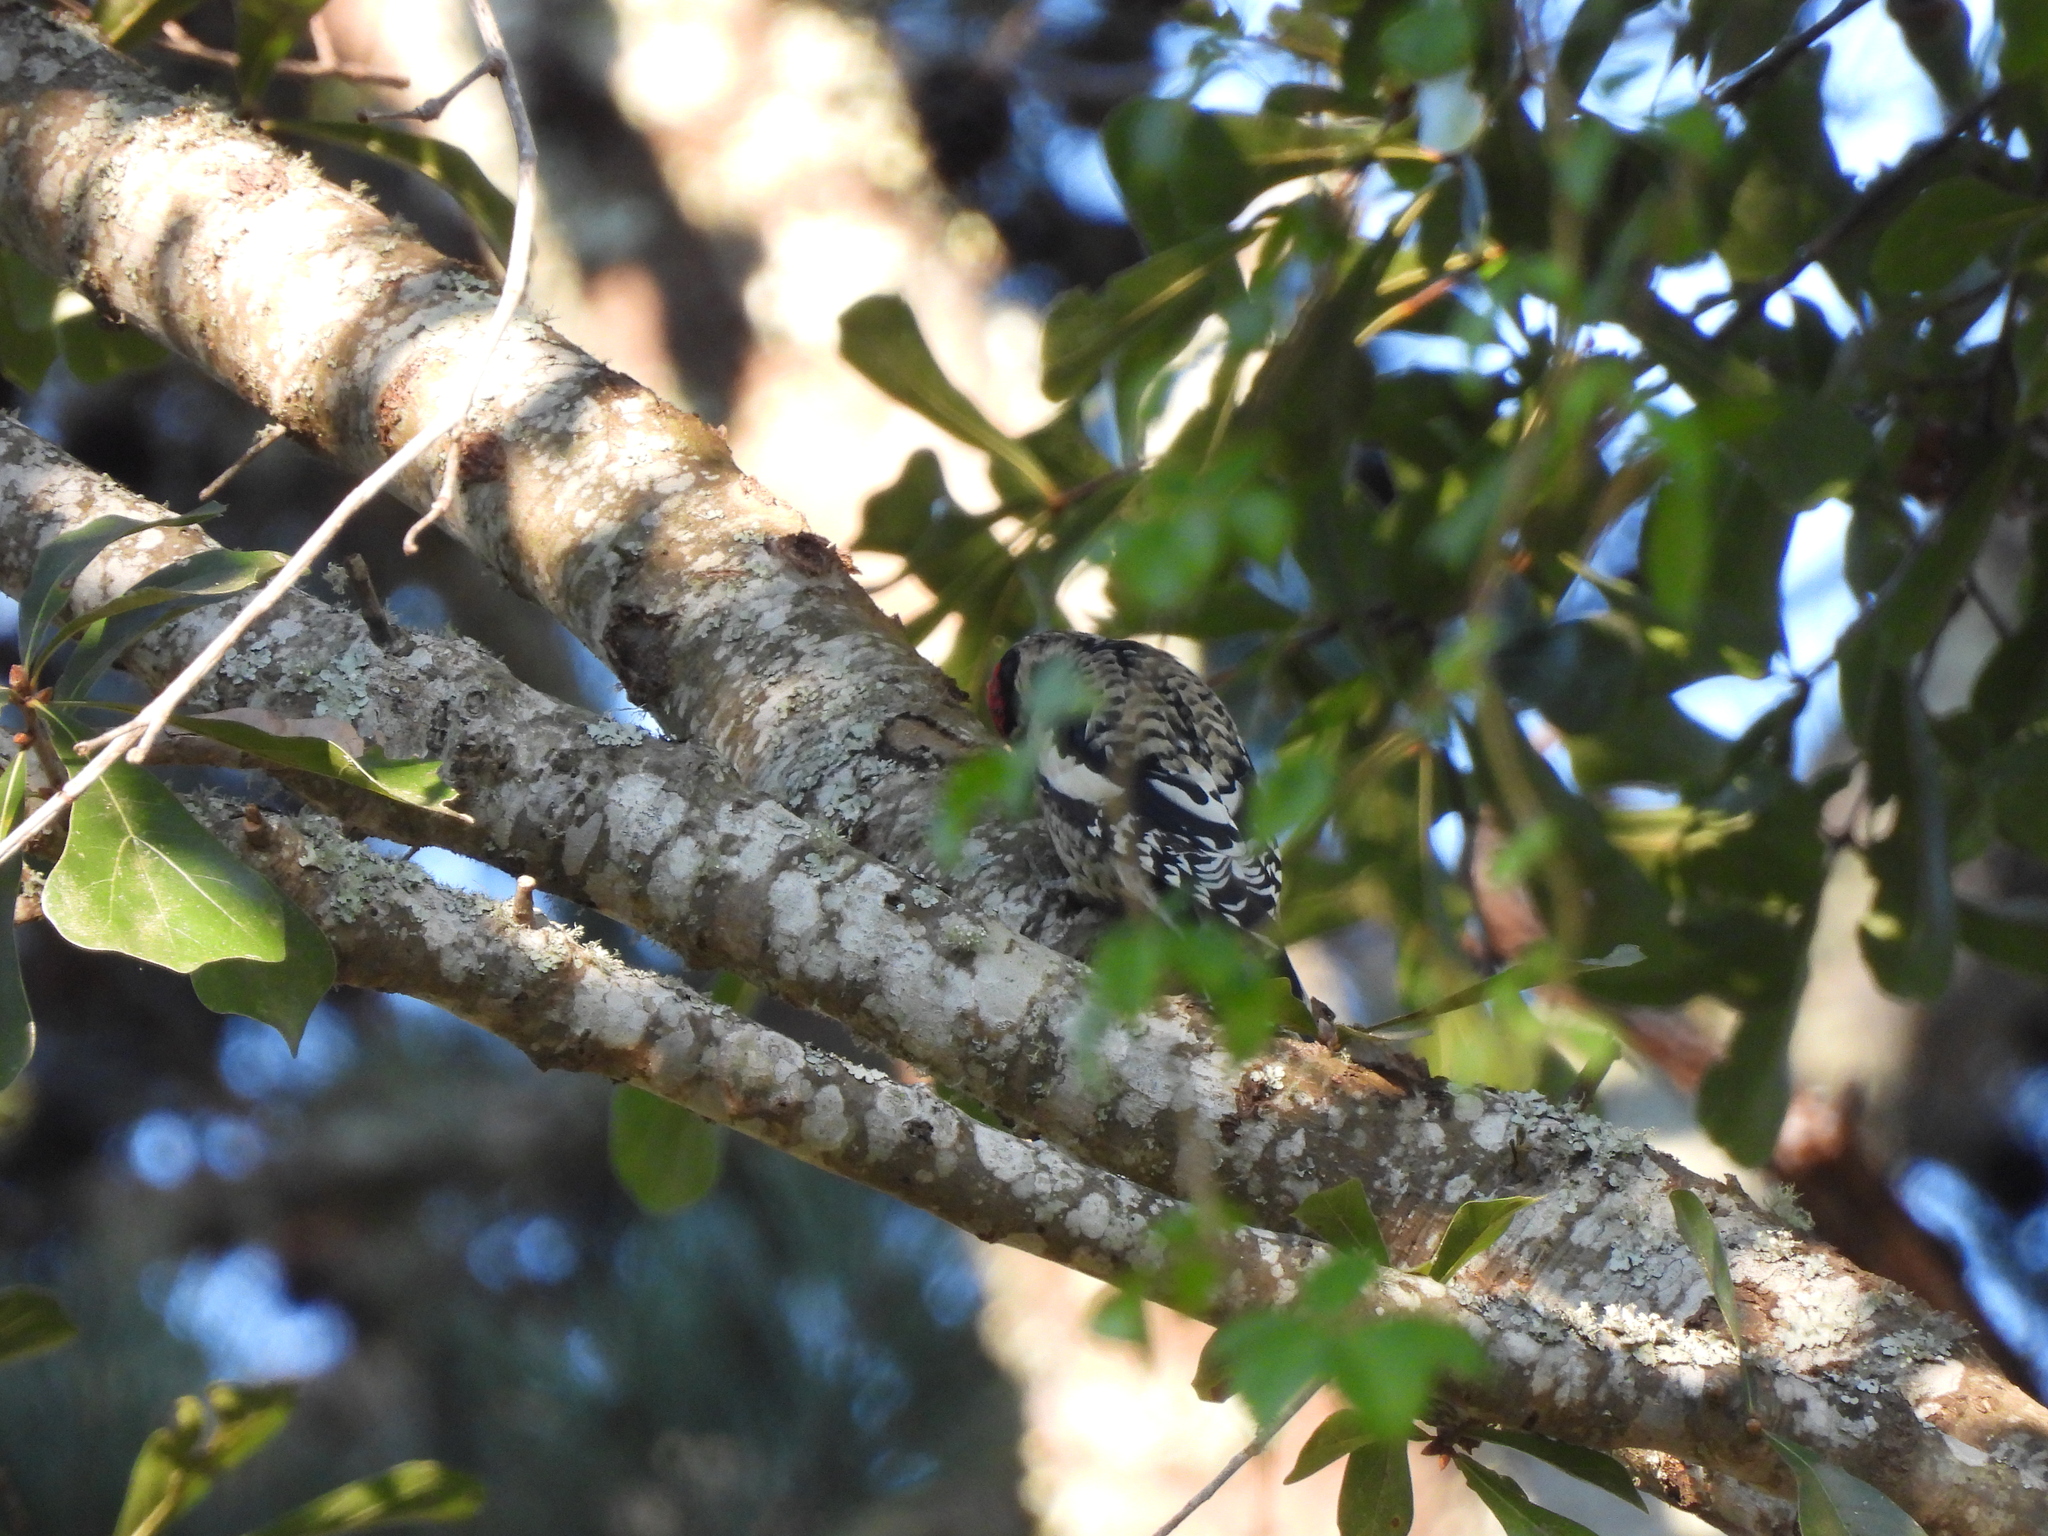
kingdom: Animalia
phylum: Chordata
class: Aves
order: Piciformes
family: Picidae
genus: Sphyrapicus
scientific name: Sphyrapicus varius
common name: Yellow-bellied sapsucker
